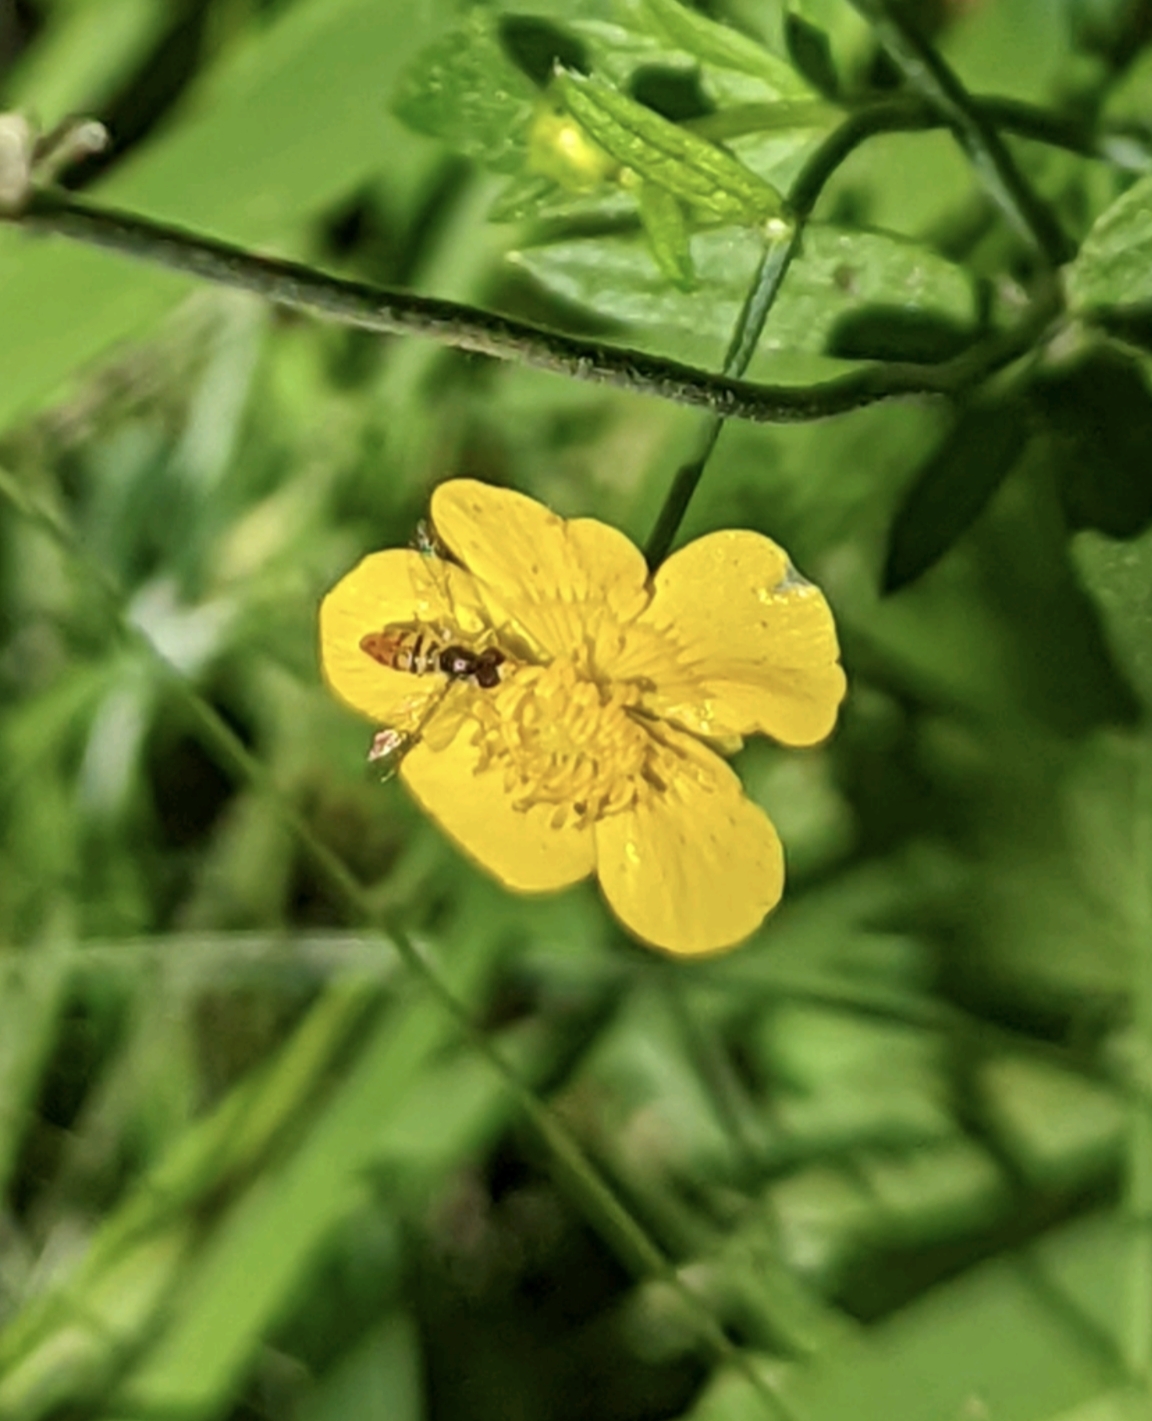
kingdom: Animalia
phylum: Arthropoda
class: Insecta
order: Diptera
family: Syrphidae
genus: Toxomerus
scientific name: Toxomerus marginatus
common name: Syrphid fly
